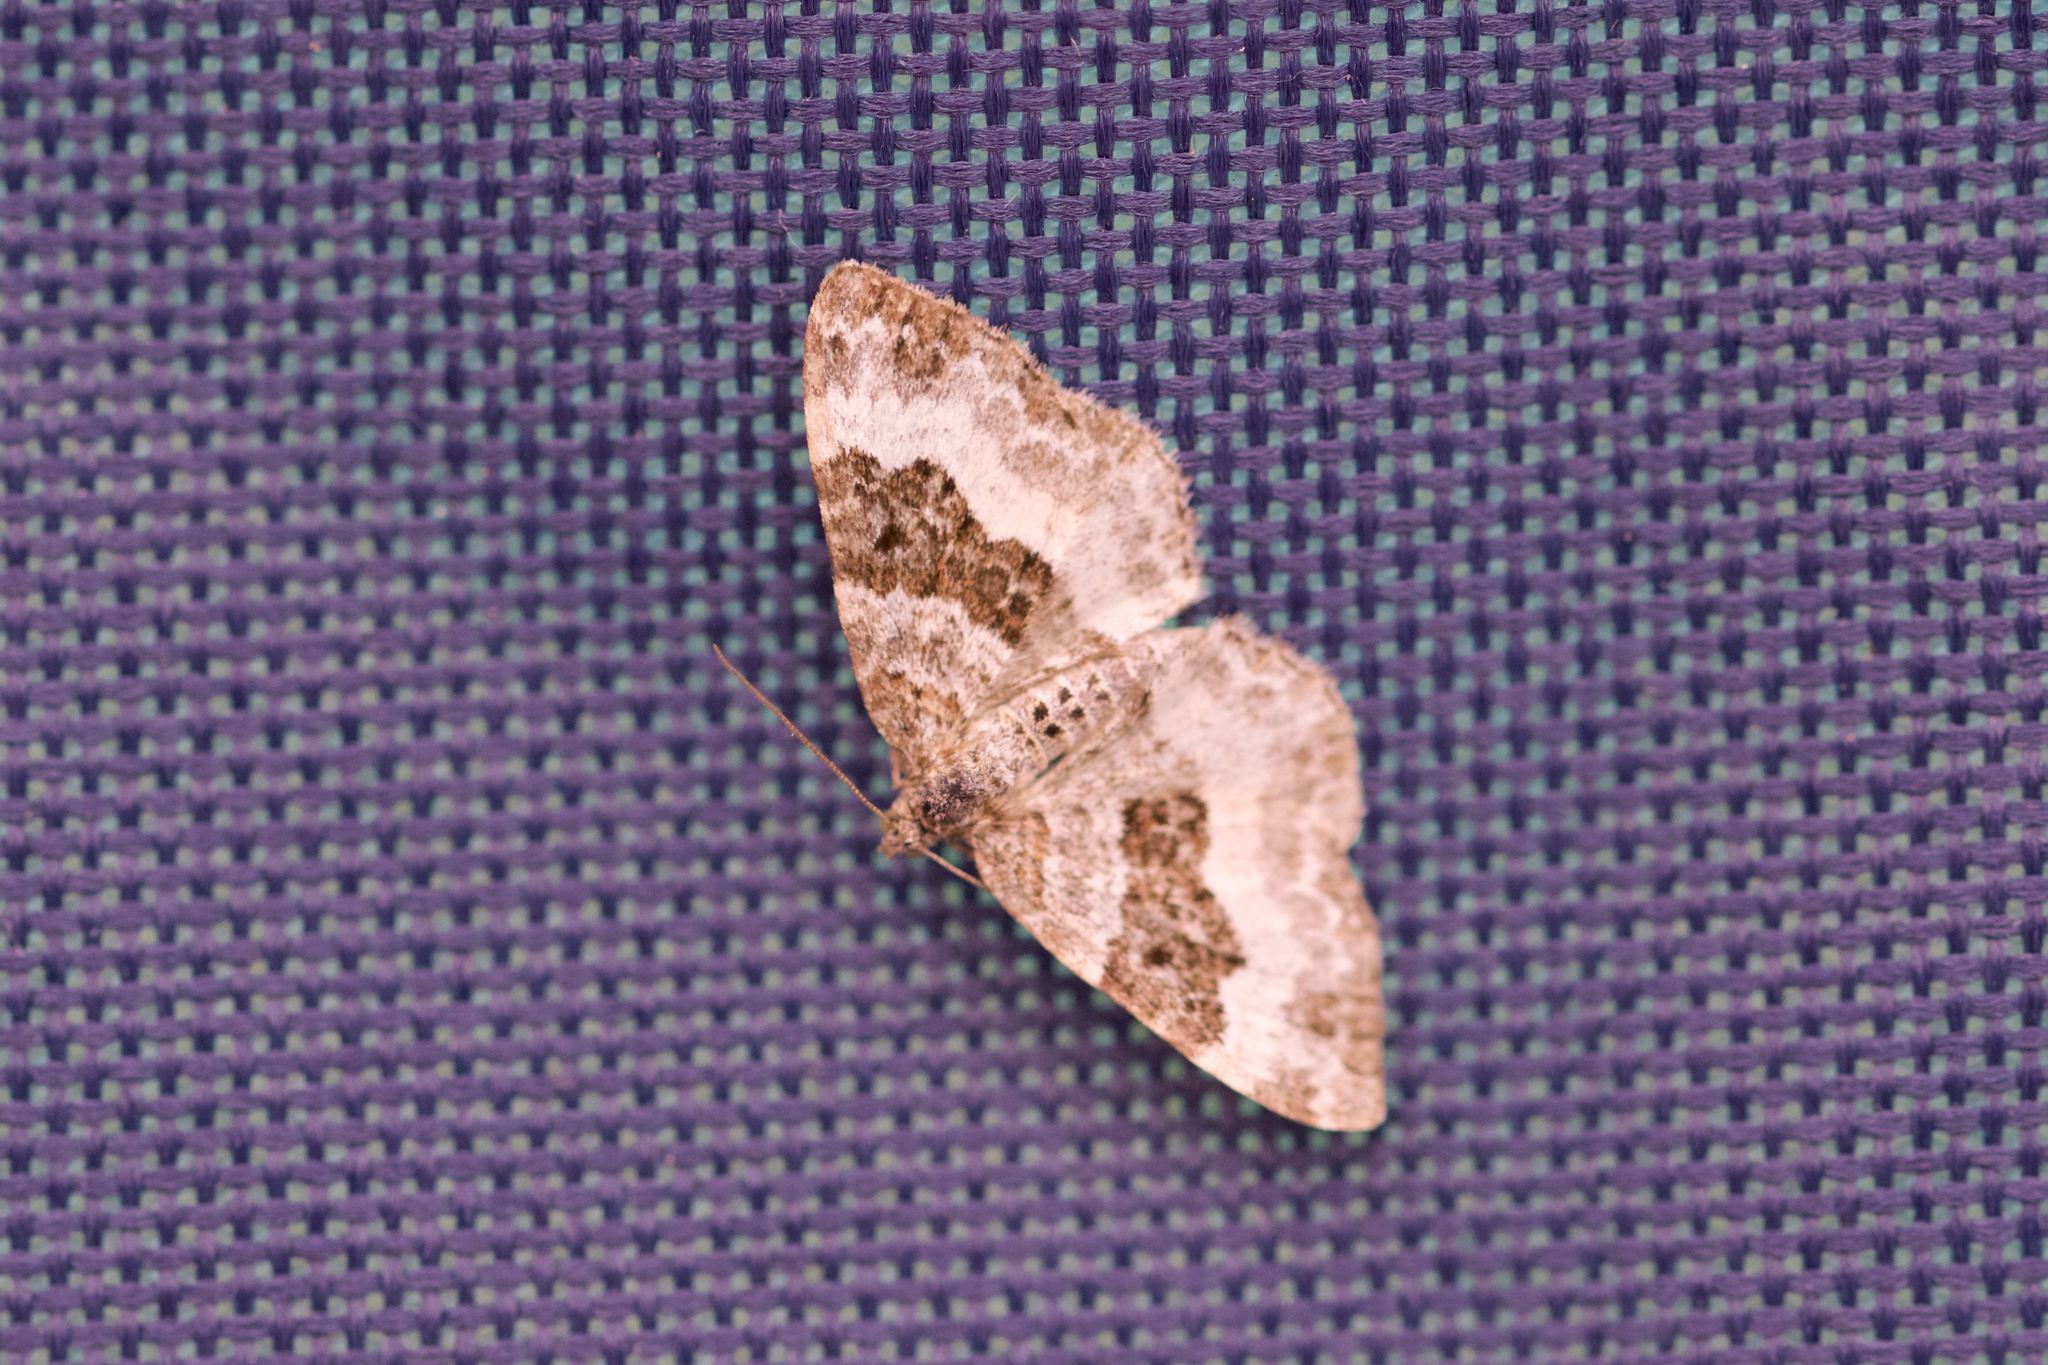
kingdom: Animalia
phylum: Arthropoda
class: Insecta
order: Lepidoptera
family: Geometridae
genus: Epirrhoe
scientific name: Epirrhoe alternata
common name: Common carpet
